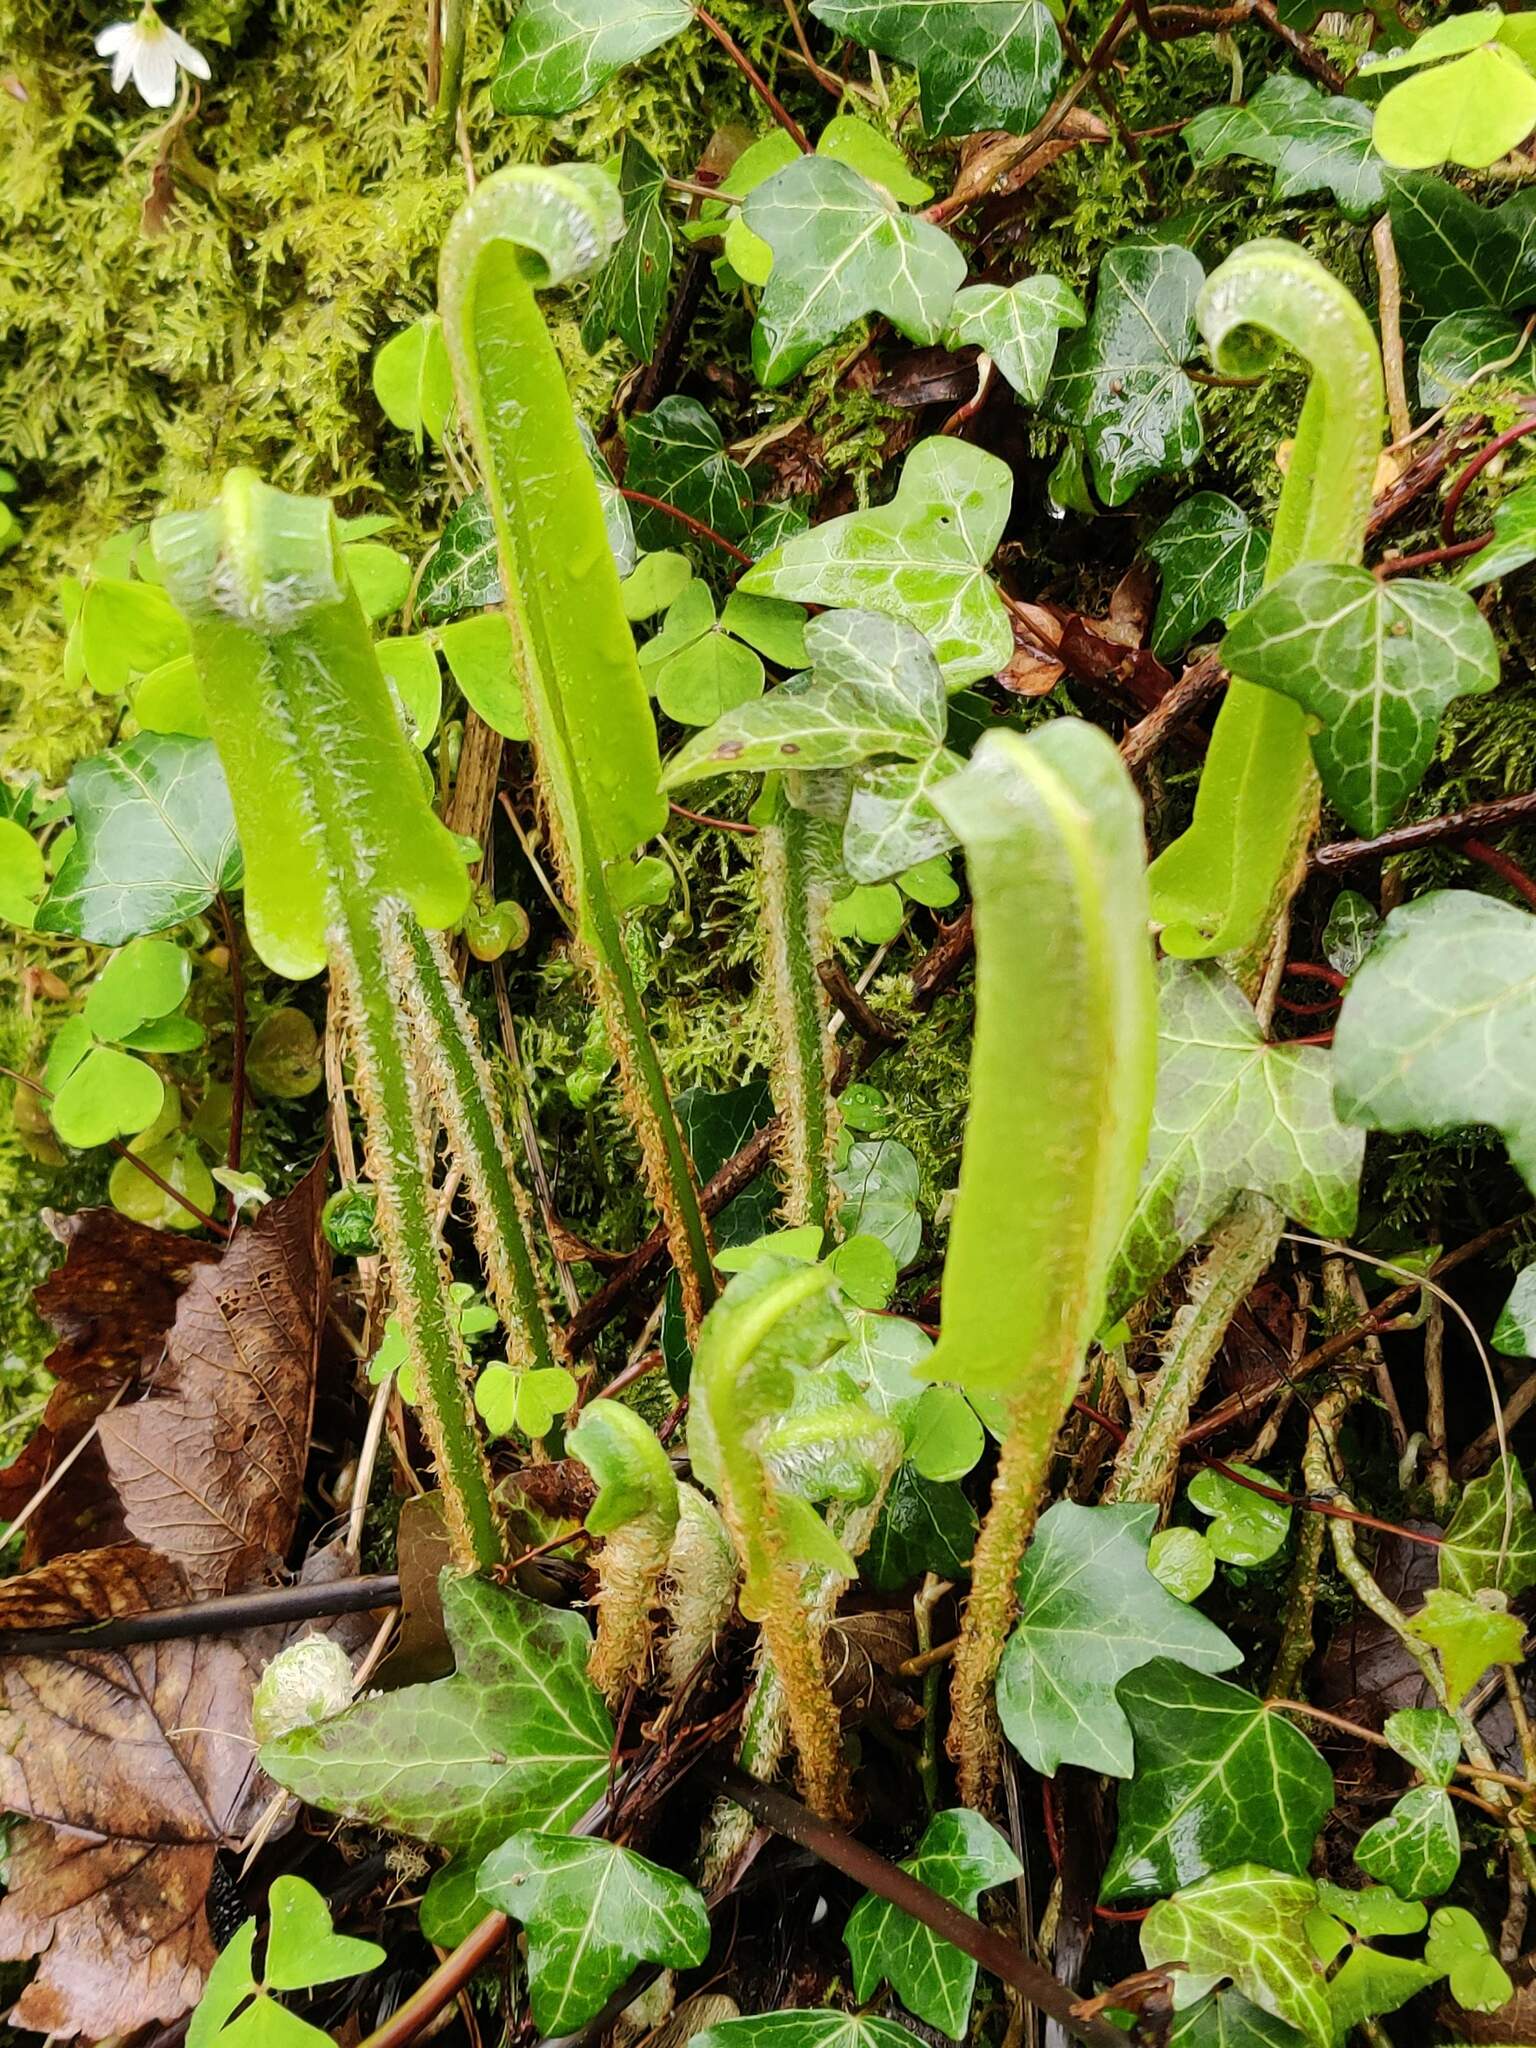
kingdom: Plantae
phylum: Tracheophyta
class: Polypodiopsida
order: Polypodiales
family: Aspleniaceae
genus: Asplenium
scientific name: Asplenium scolopendrium
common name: Hart's-tongue fern
